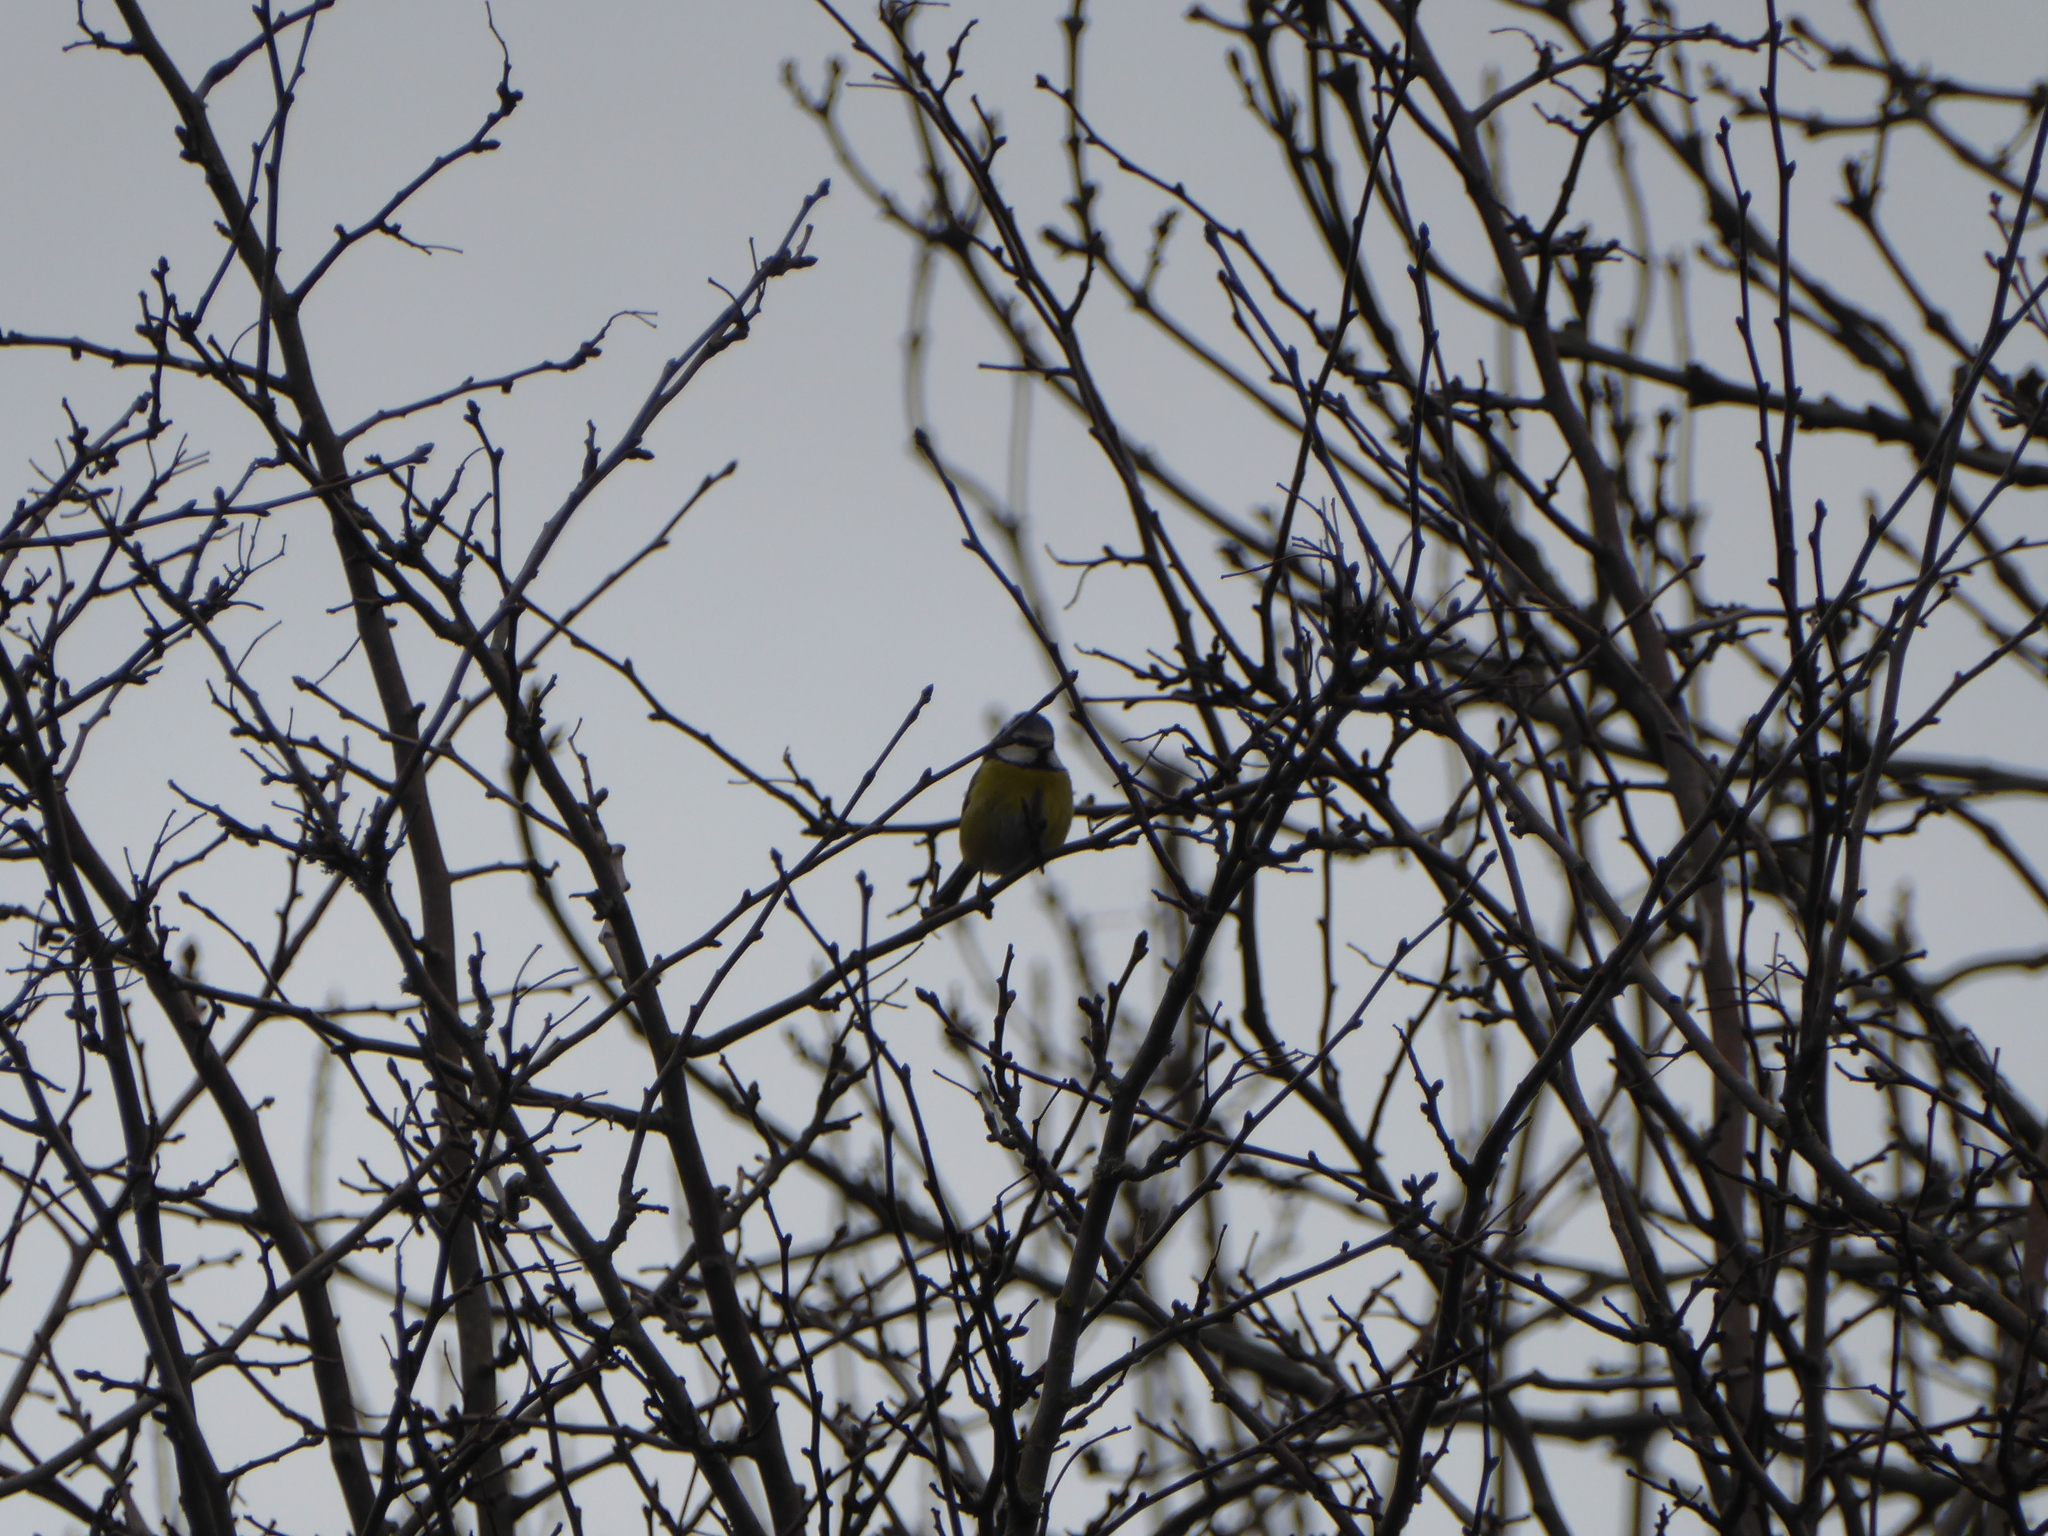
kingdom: Animalia
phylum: Chordata
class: Aves
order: Passeriformes
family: Paridae
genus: Cyanistes
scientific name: Cyanistes caeruleus
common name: Eurasian blue tit
